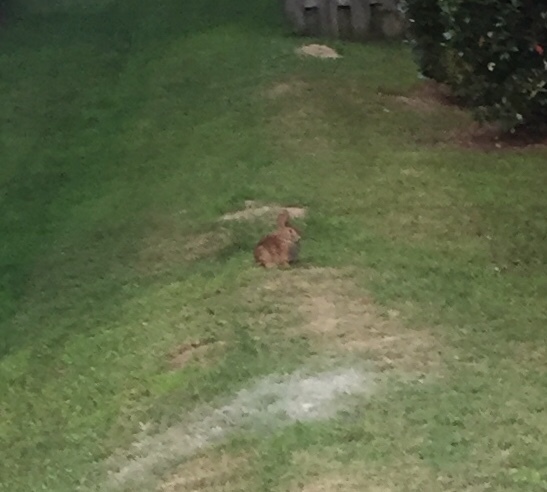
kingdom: Animalia
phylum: Chordata
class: Mammalia
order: Lagomorpha
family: Leporidae
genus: Sylvilagus
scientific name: Sylvilagus floridanus
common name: Eastern cottontail
